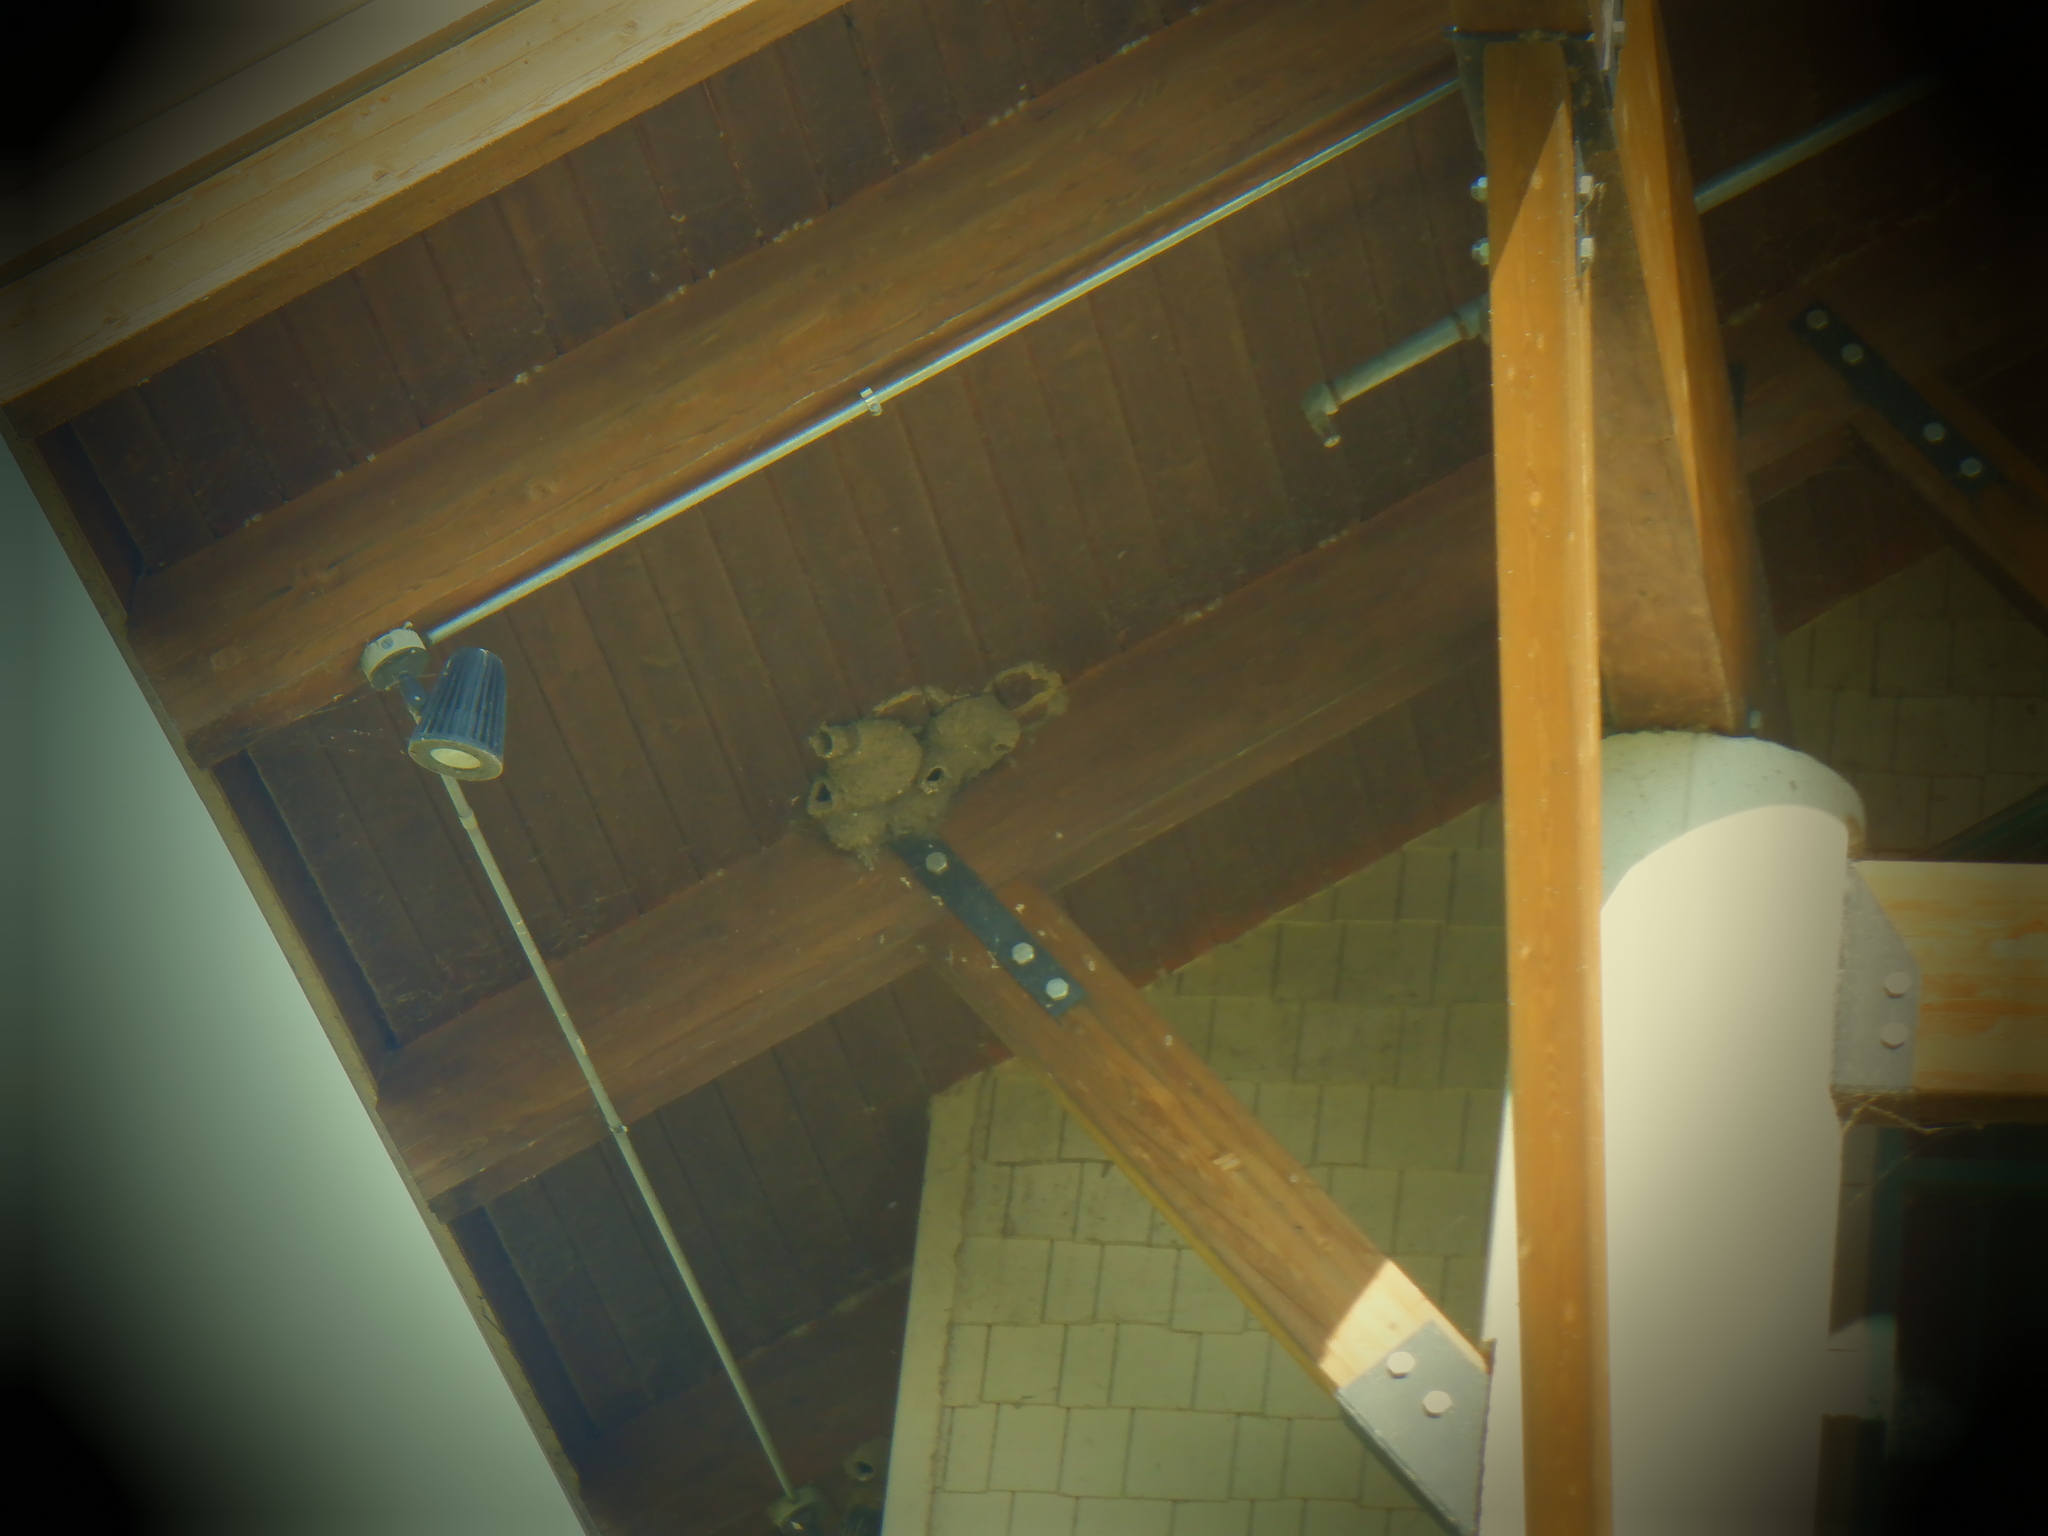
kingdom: Animalia
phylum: Chordata
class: Aves
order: Passeriformes
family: Hirundinidae
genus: Petrochelidon
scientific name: Petrochelidon pyrrhonota
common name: American cliff swallow
